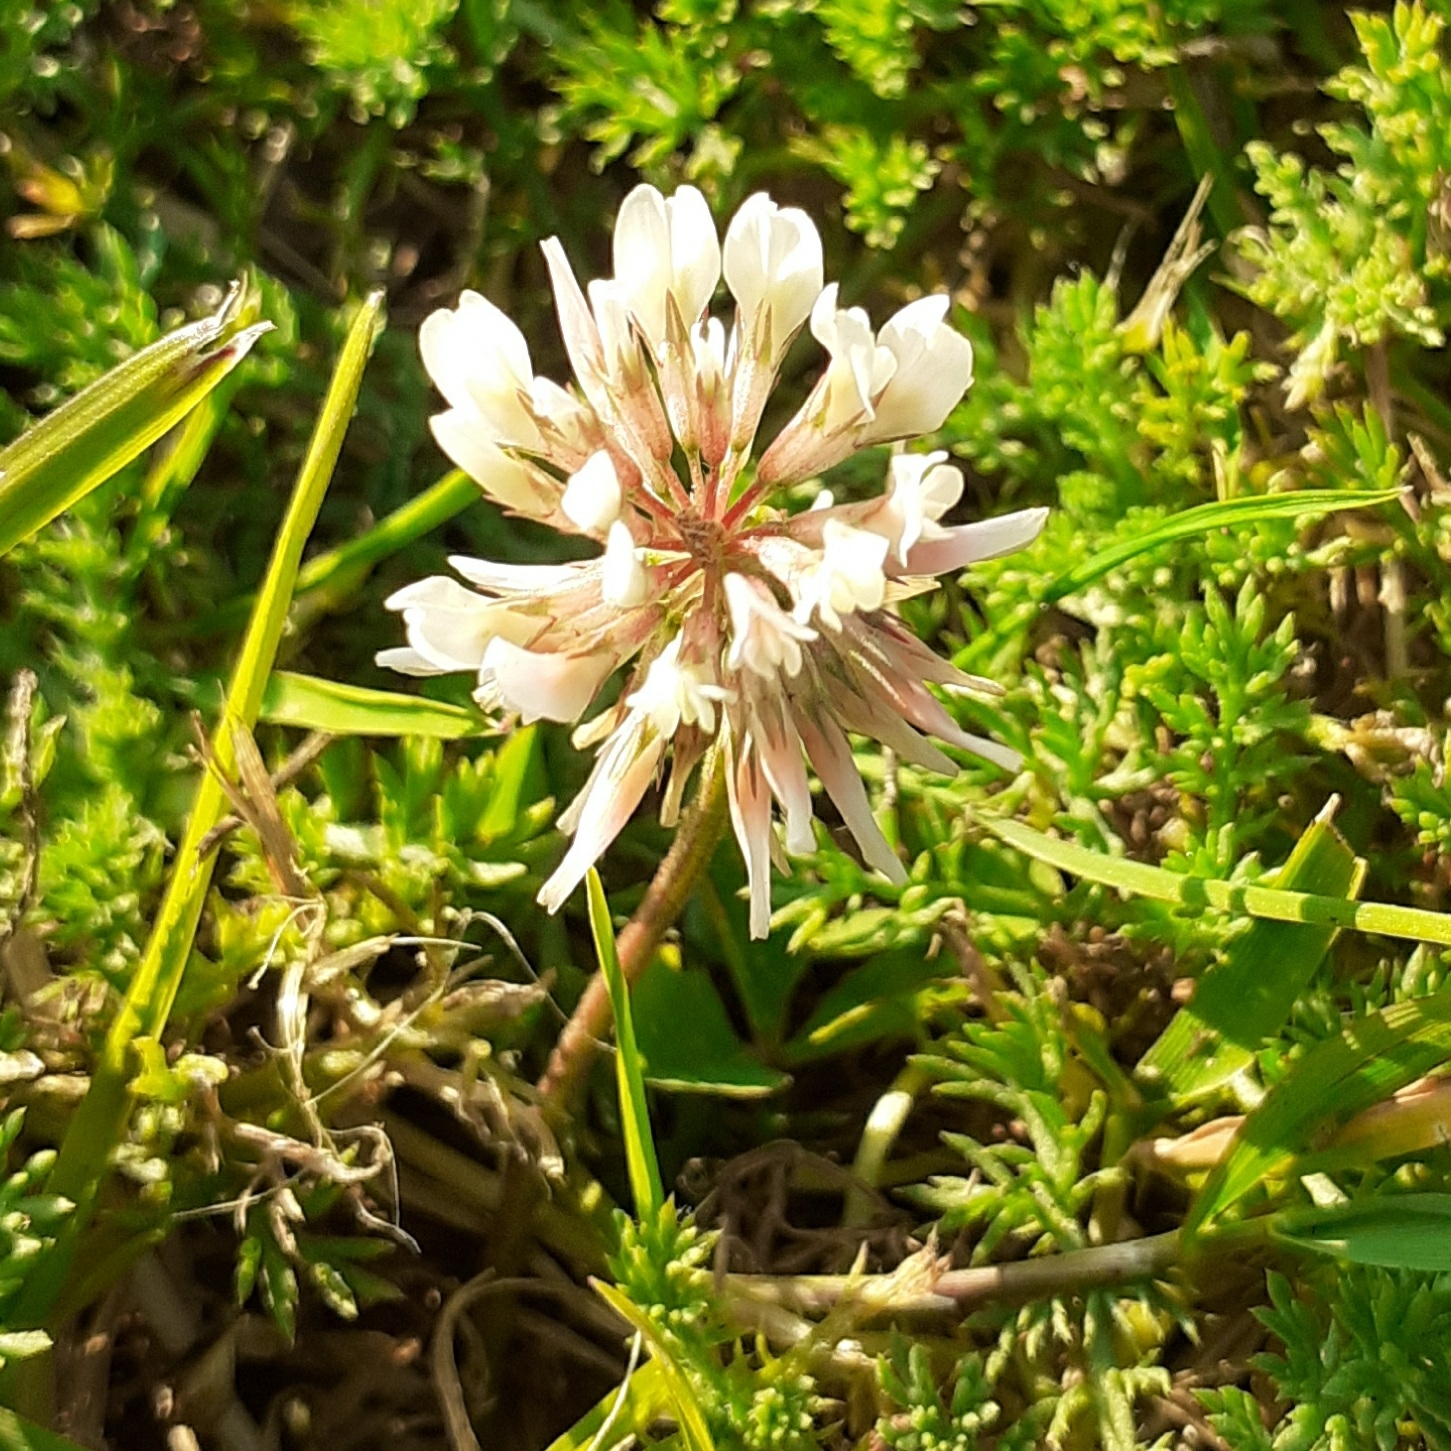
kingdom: Plantae
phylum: Tracheophyta
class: Magnoliopsida
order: Fabales
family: Fabaceae
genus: Trifolium
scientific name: Trifolium repens
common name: White clover
